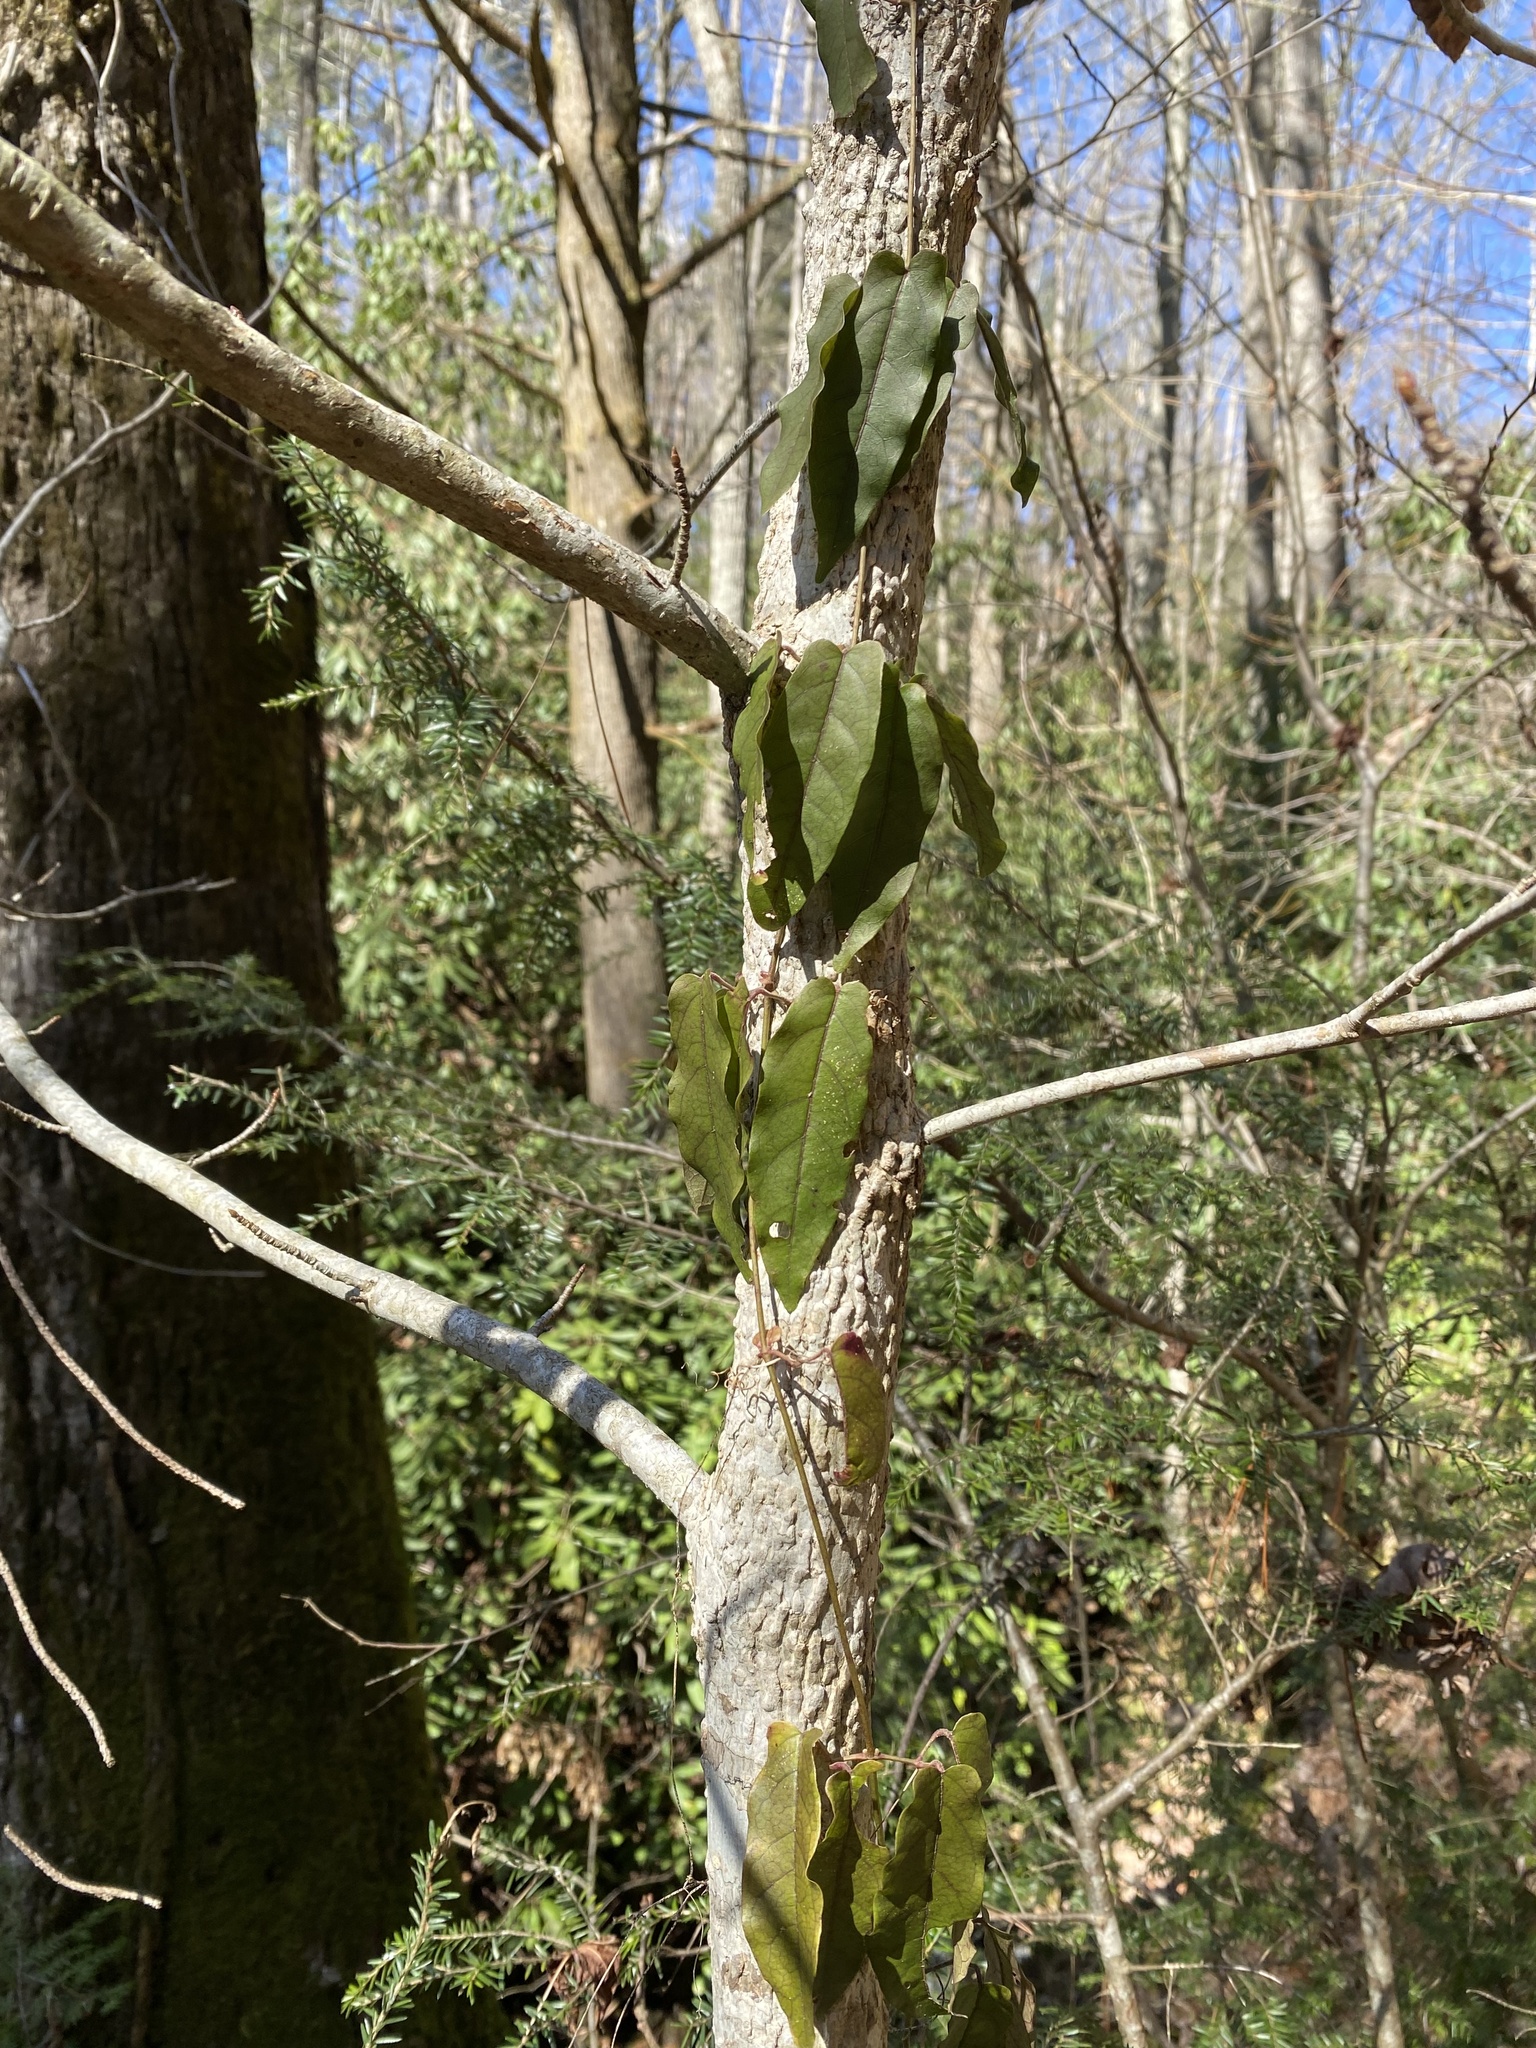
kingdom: Plantae
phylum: Tracheophyta
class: Magnoliopsida
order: Lamiales
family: Bignoniaceae
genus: Bignonia
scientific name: Bignonia capreolata
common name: Crossvine
